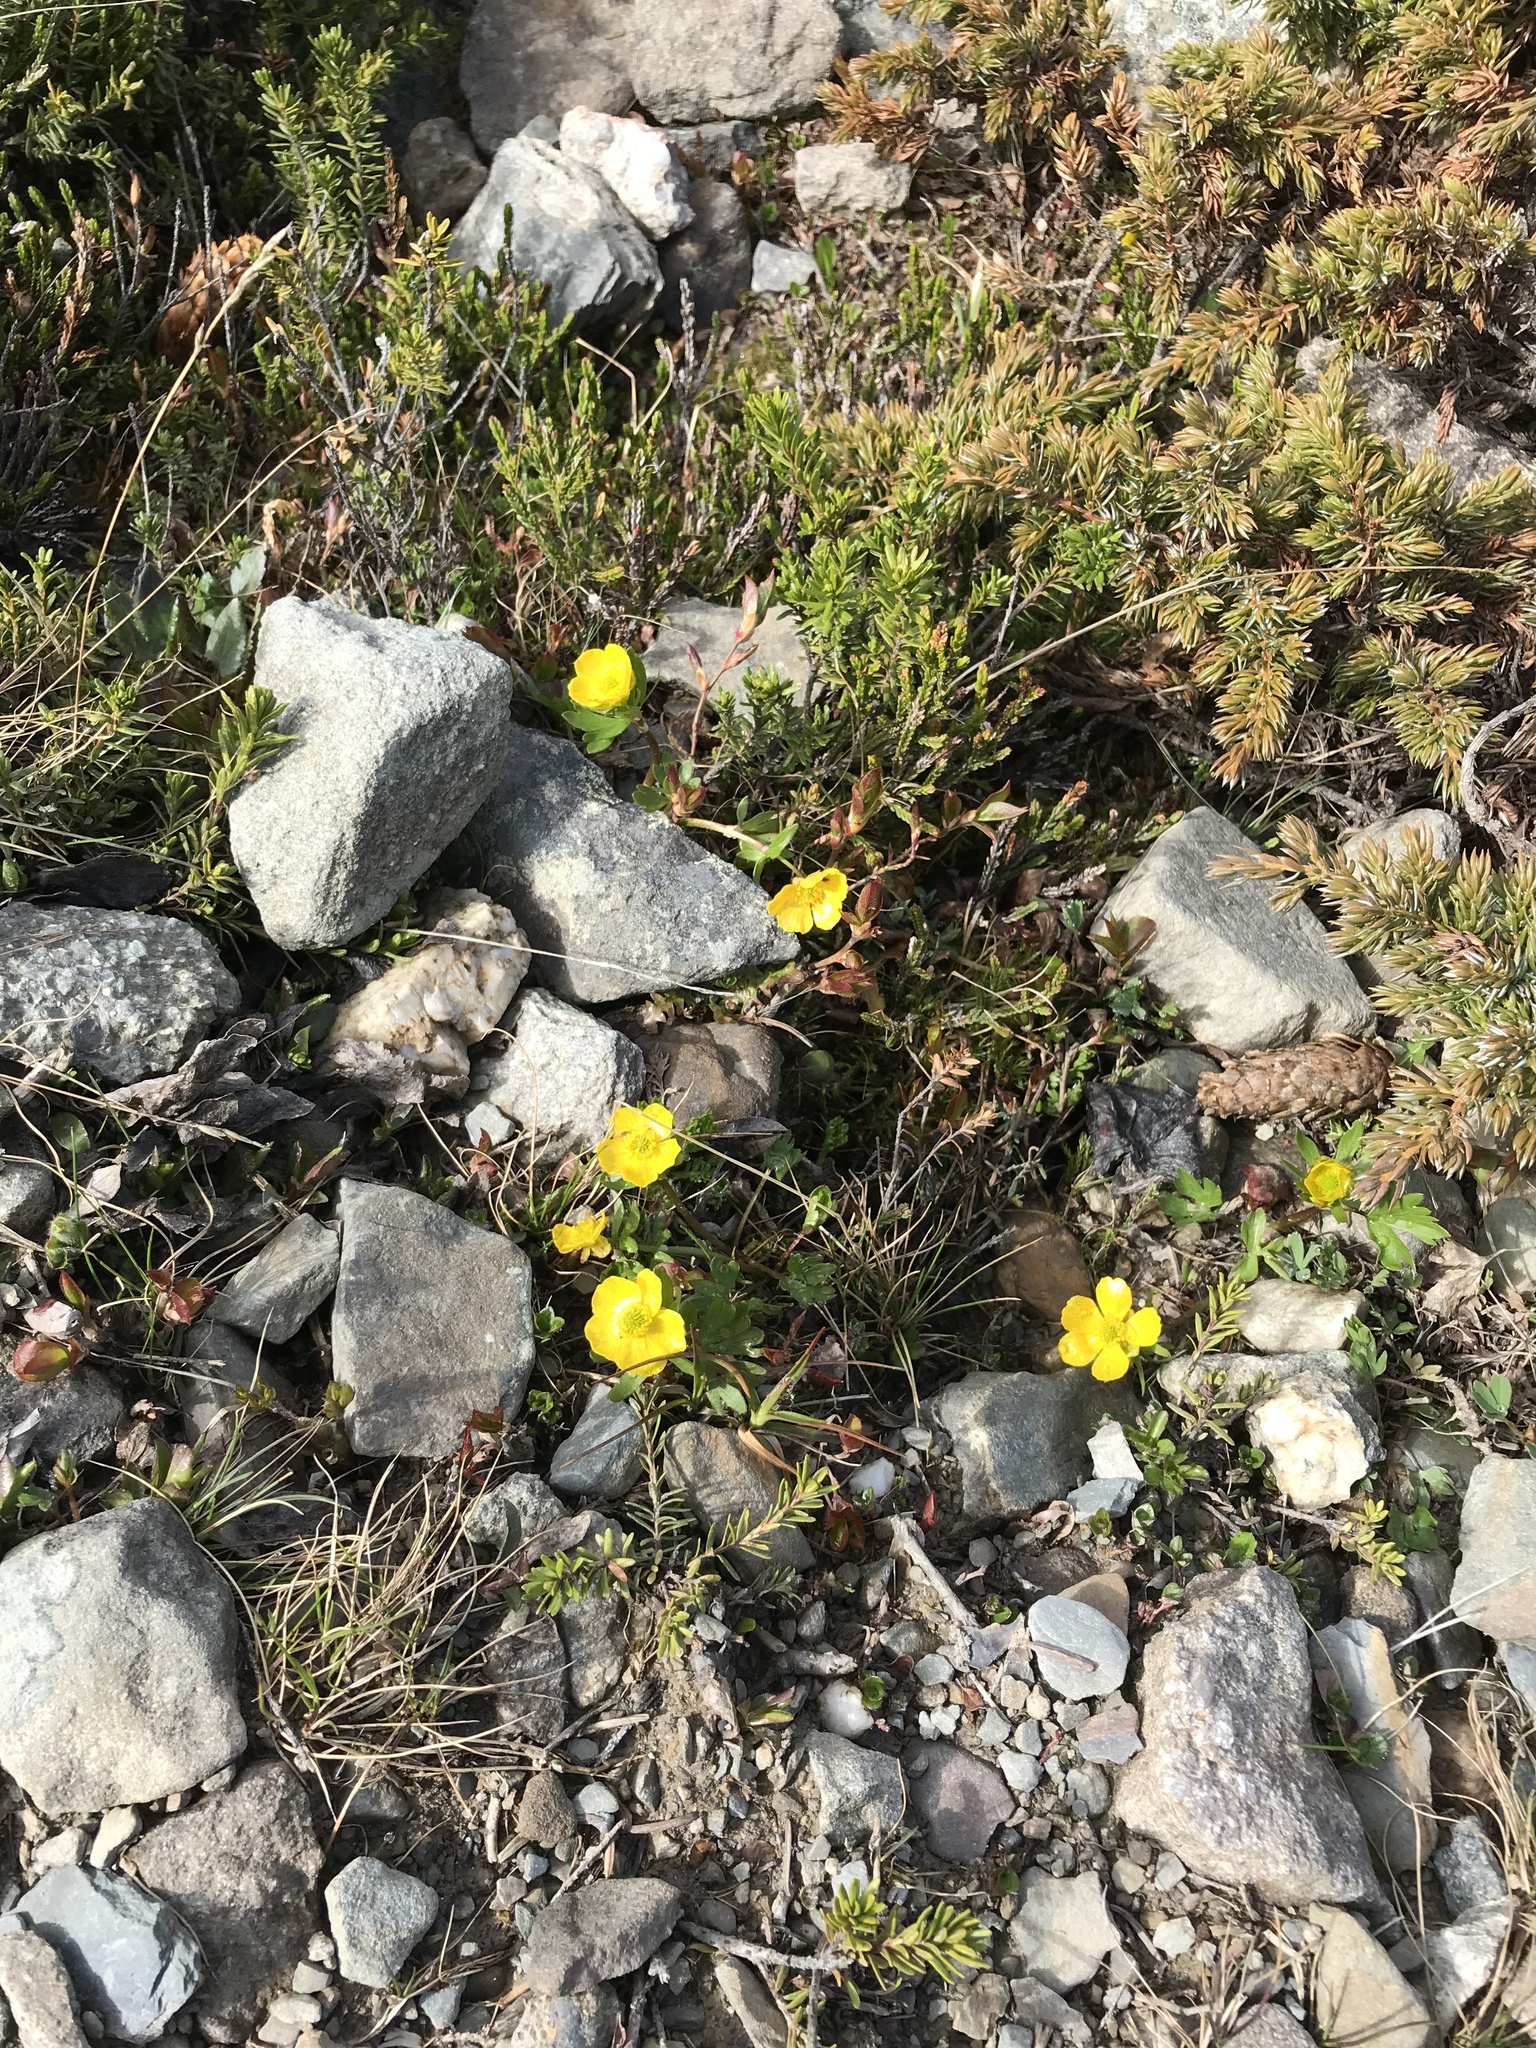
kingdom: Plantae
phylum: Tracheophyta
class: Magnoliopsida
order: Ranunculales
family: Ranunculaceae
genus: Ranunculus
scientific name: Ranunculus eschscholtzii
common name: Eschscholtz's buttercup
